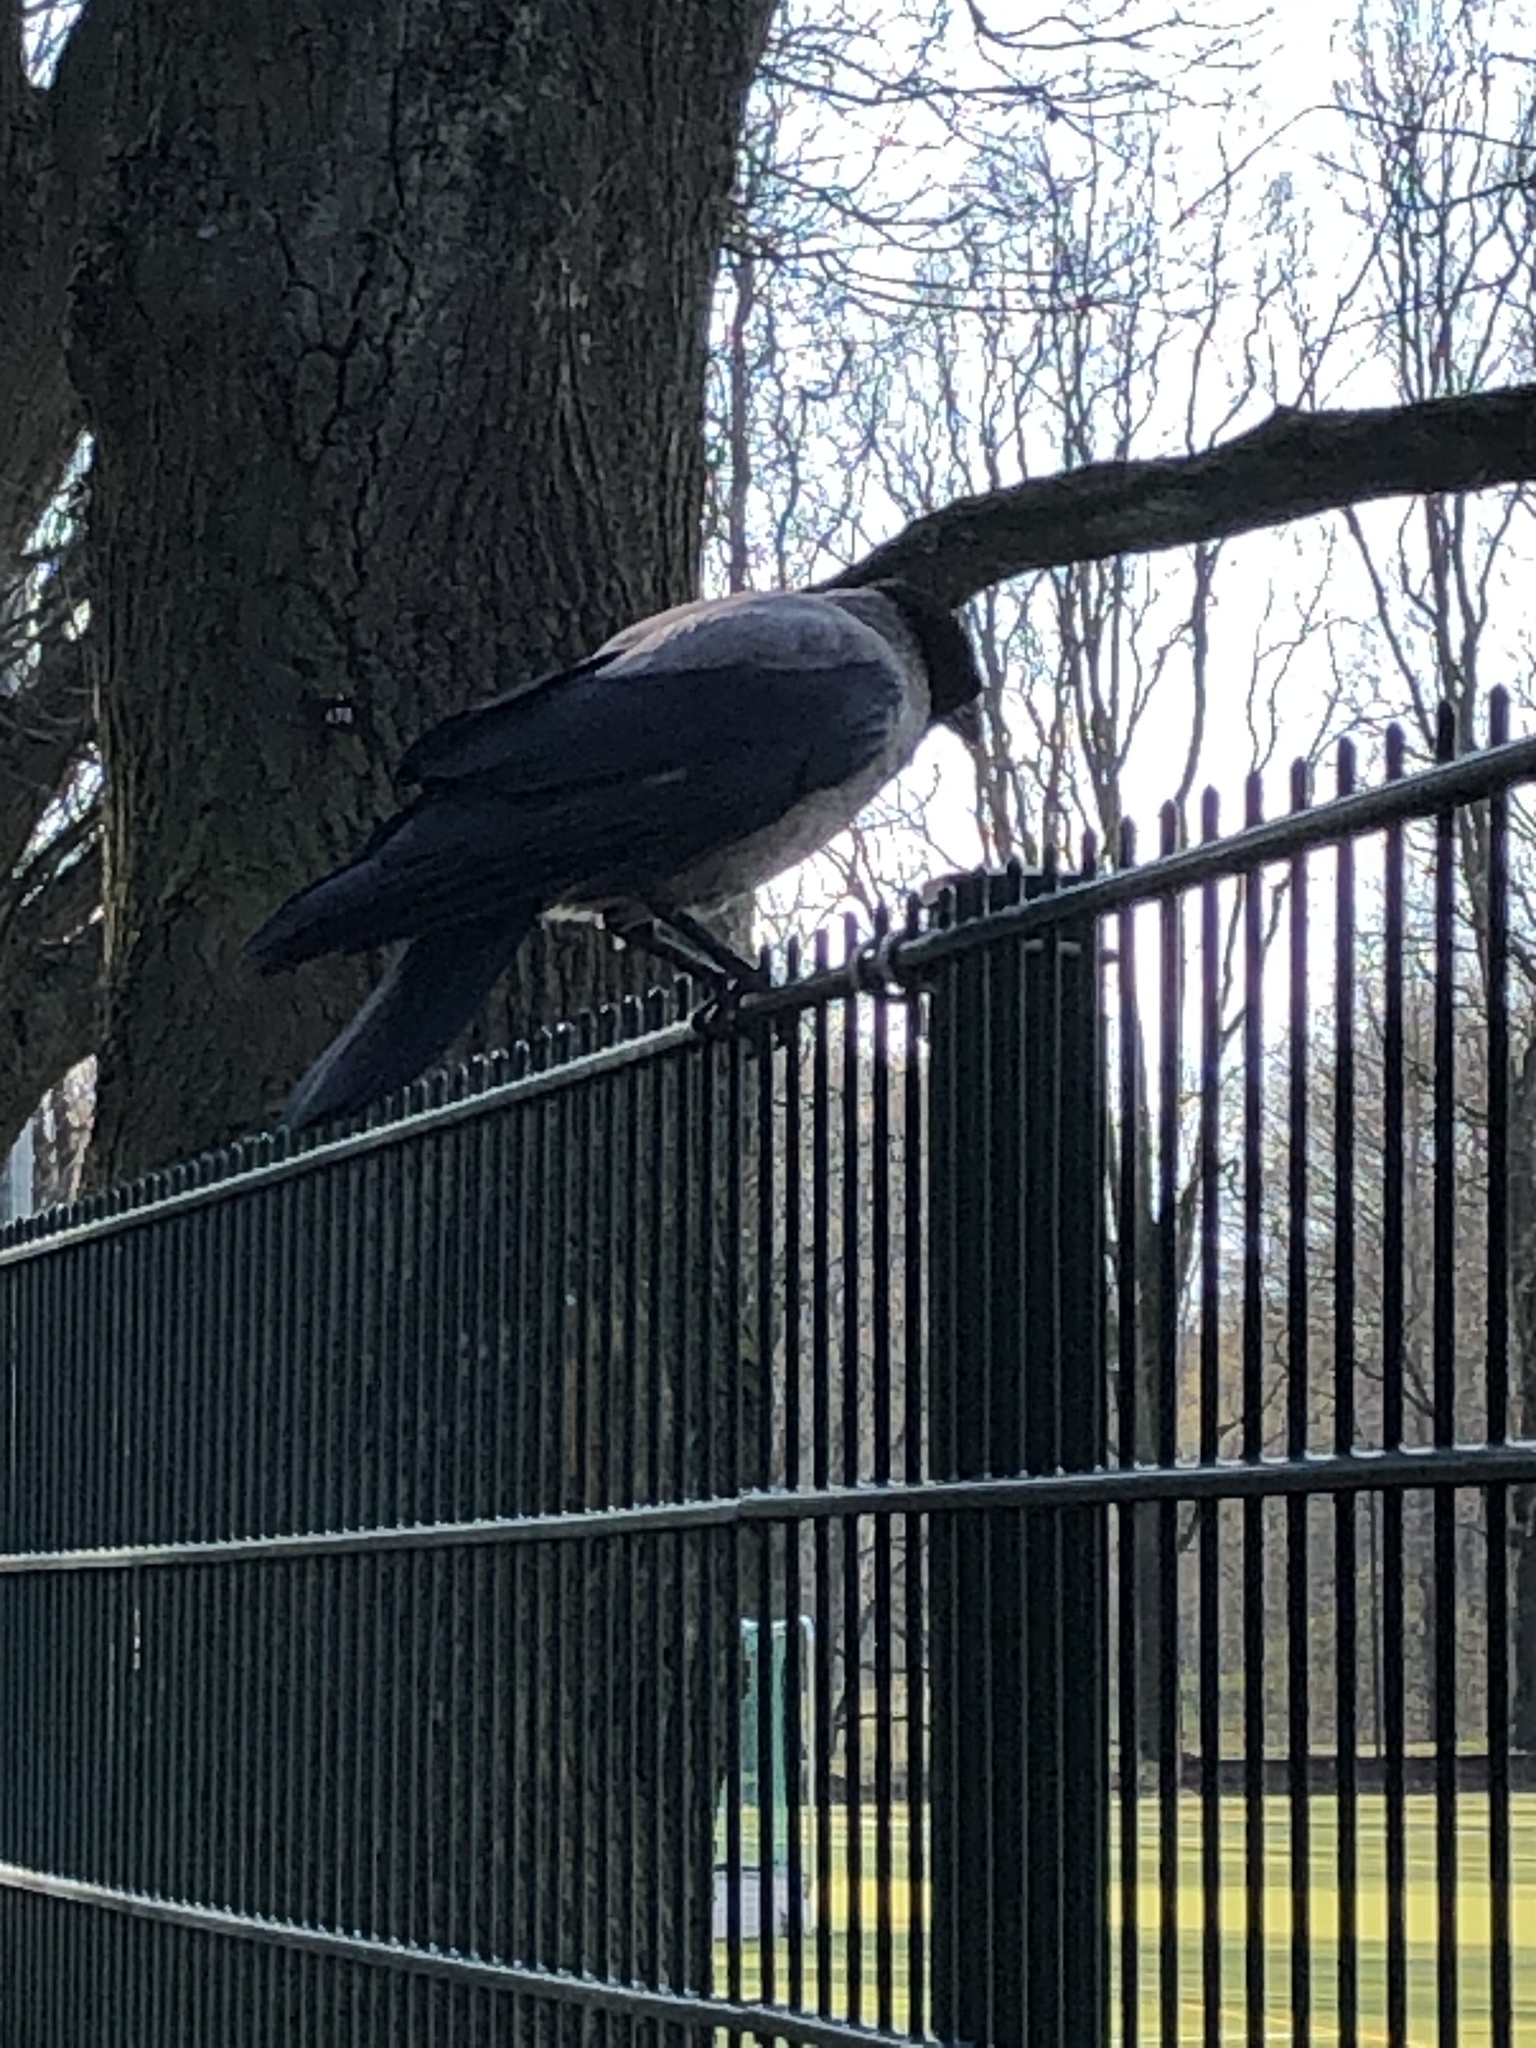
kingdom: Animalia
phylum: Chordata
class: Aves
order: Passeriformes
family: Corvidae
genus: Corvus
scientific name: Corvus cornix
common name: Hooded crow
